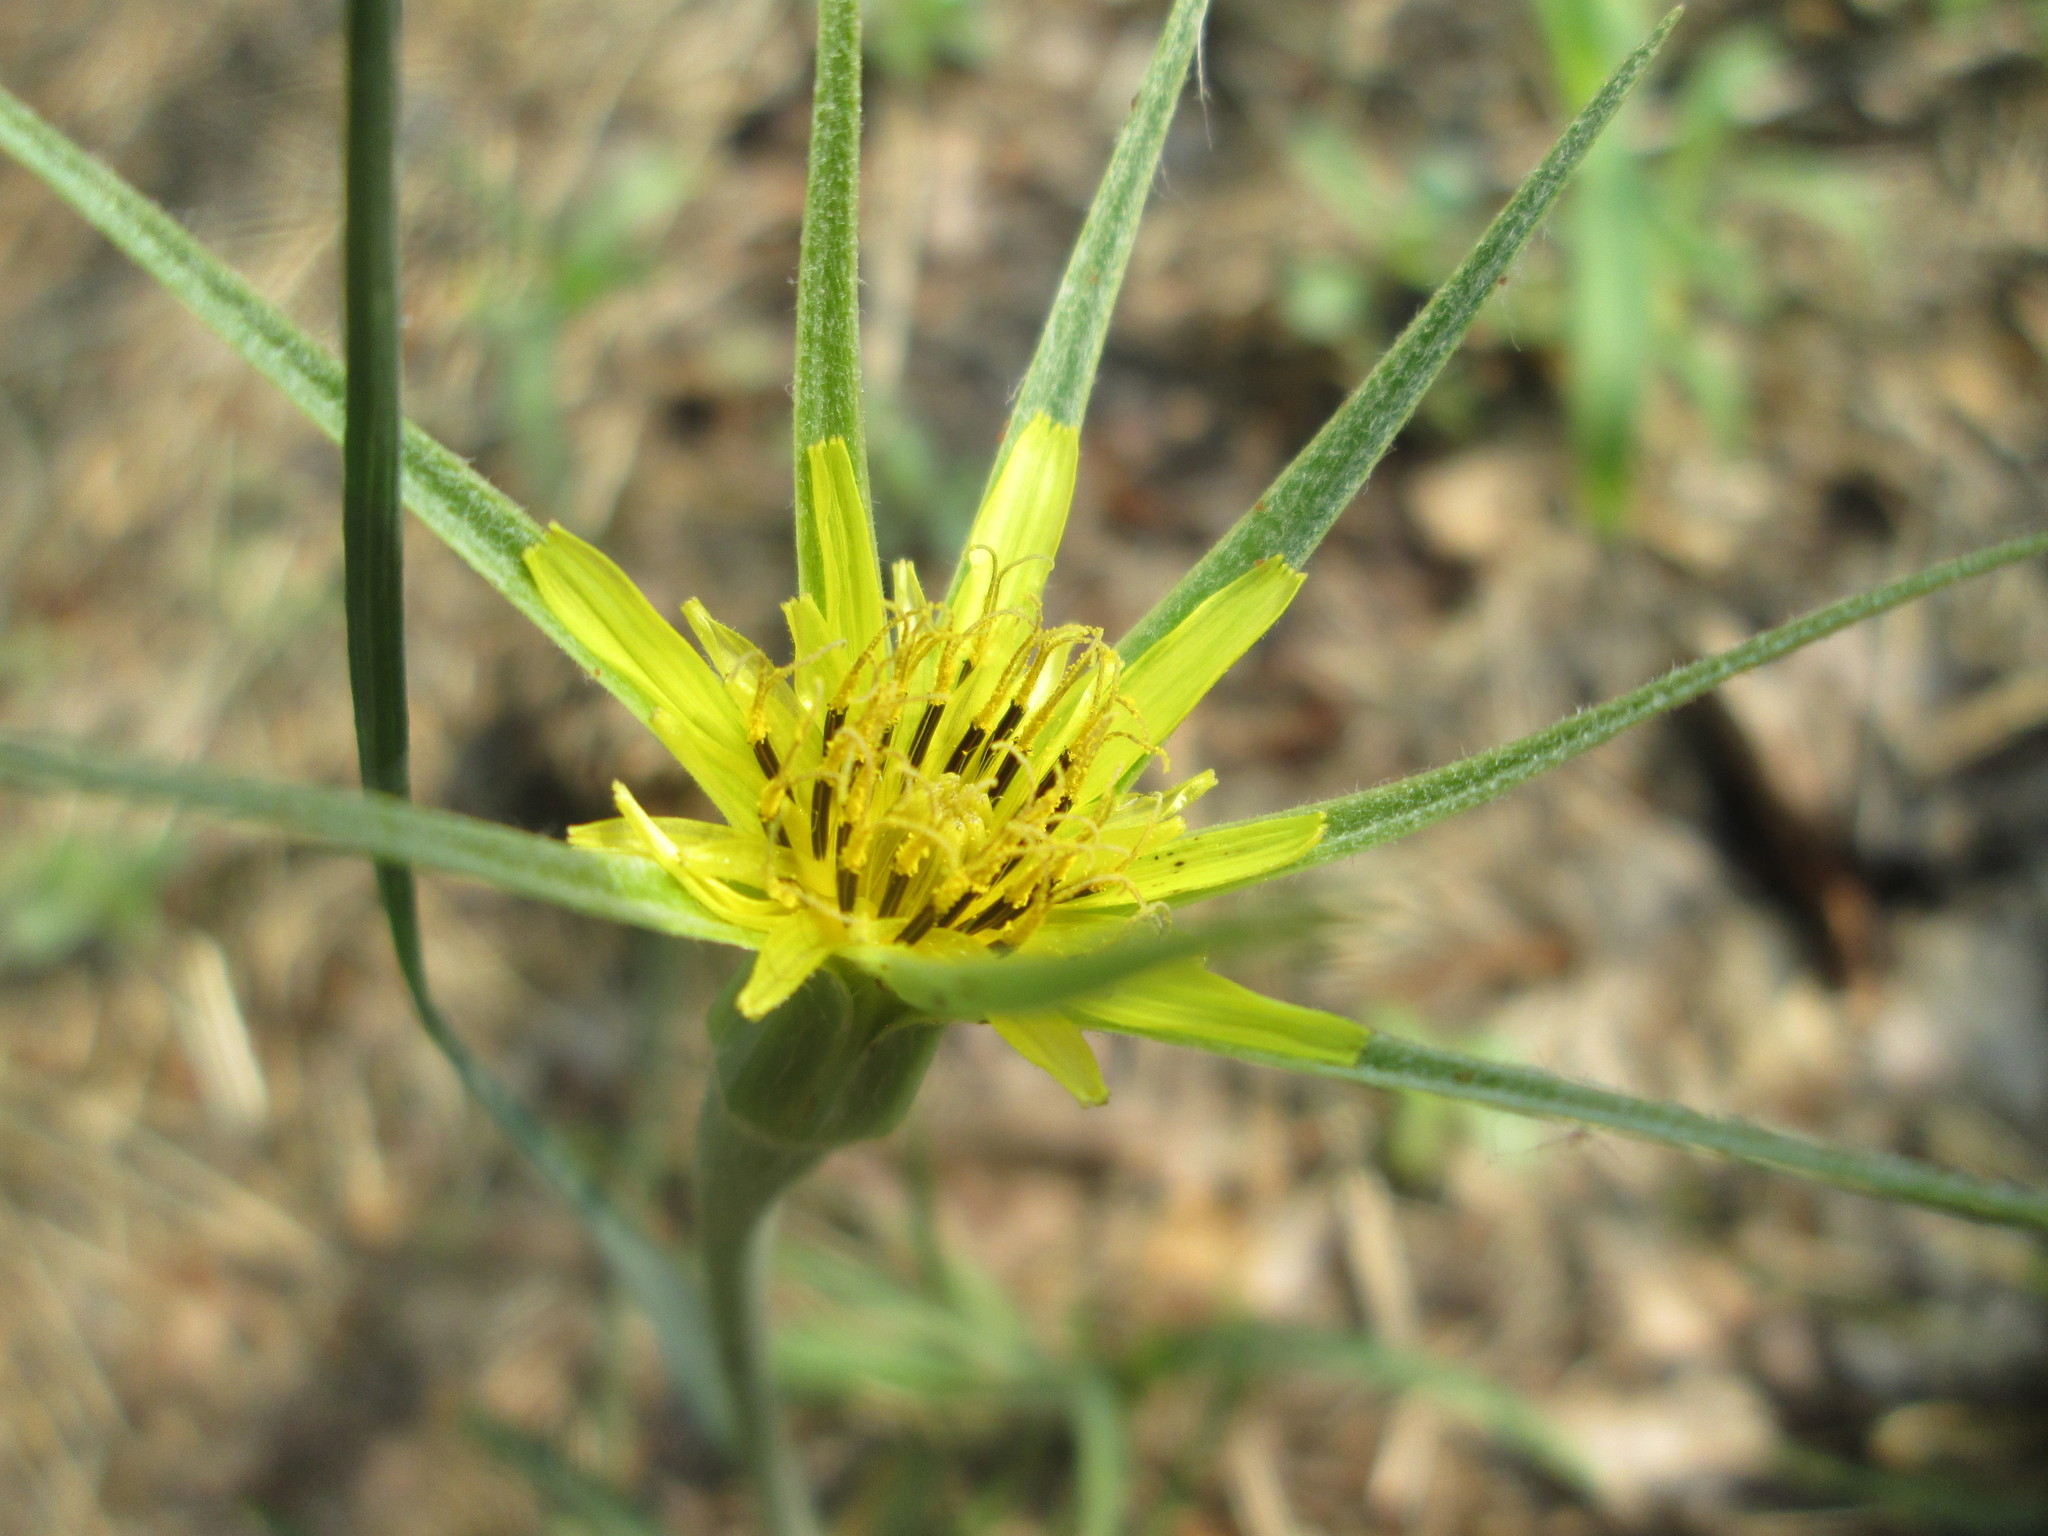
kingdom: Plantae
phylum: Tracheophyta
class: Magnoliopsida
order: Asterales
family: Asteraceae
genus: Tragopogon
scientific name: Tragopogon dubius
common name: Yellow salsify
